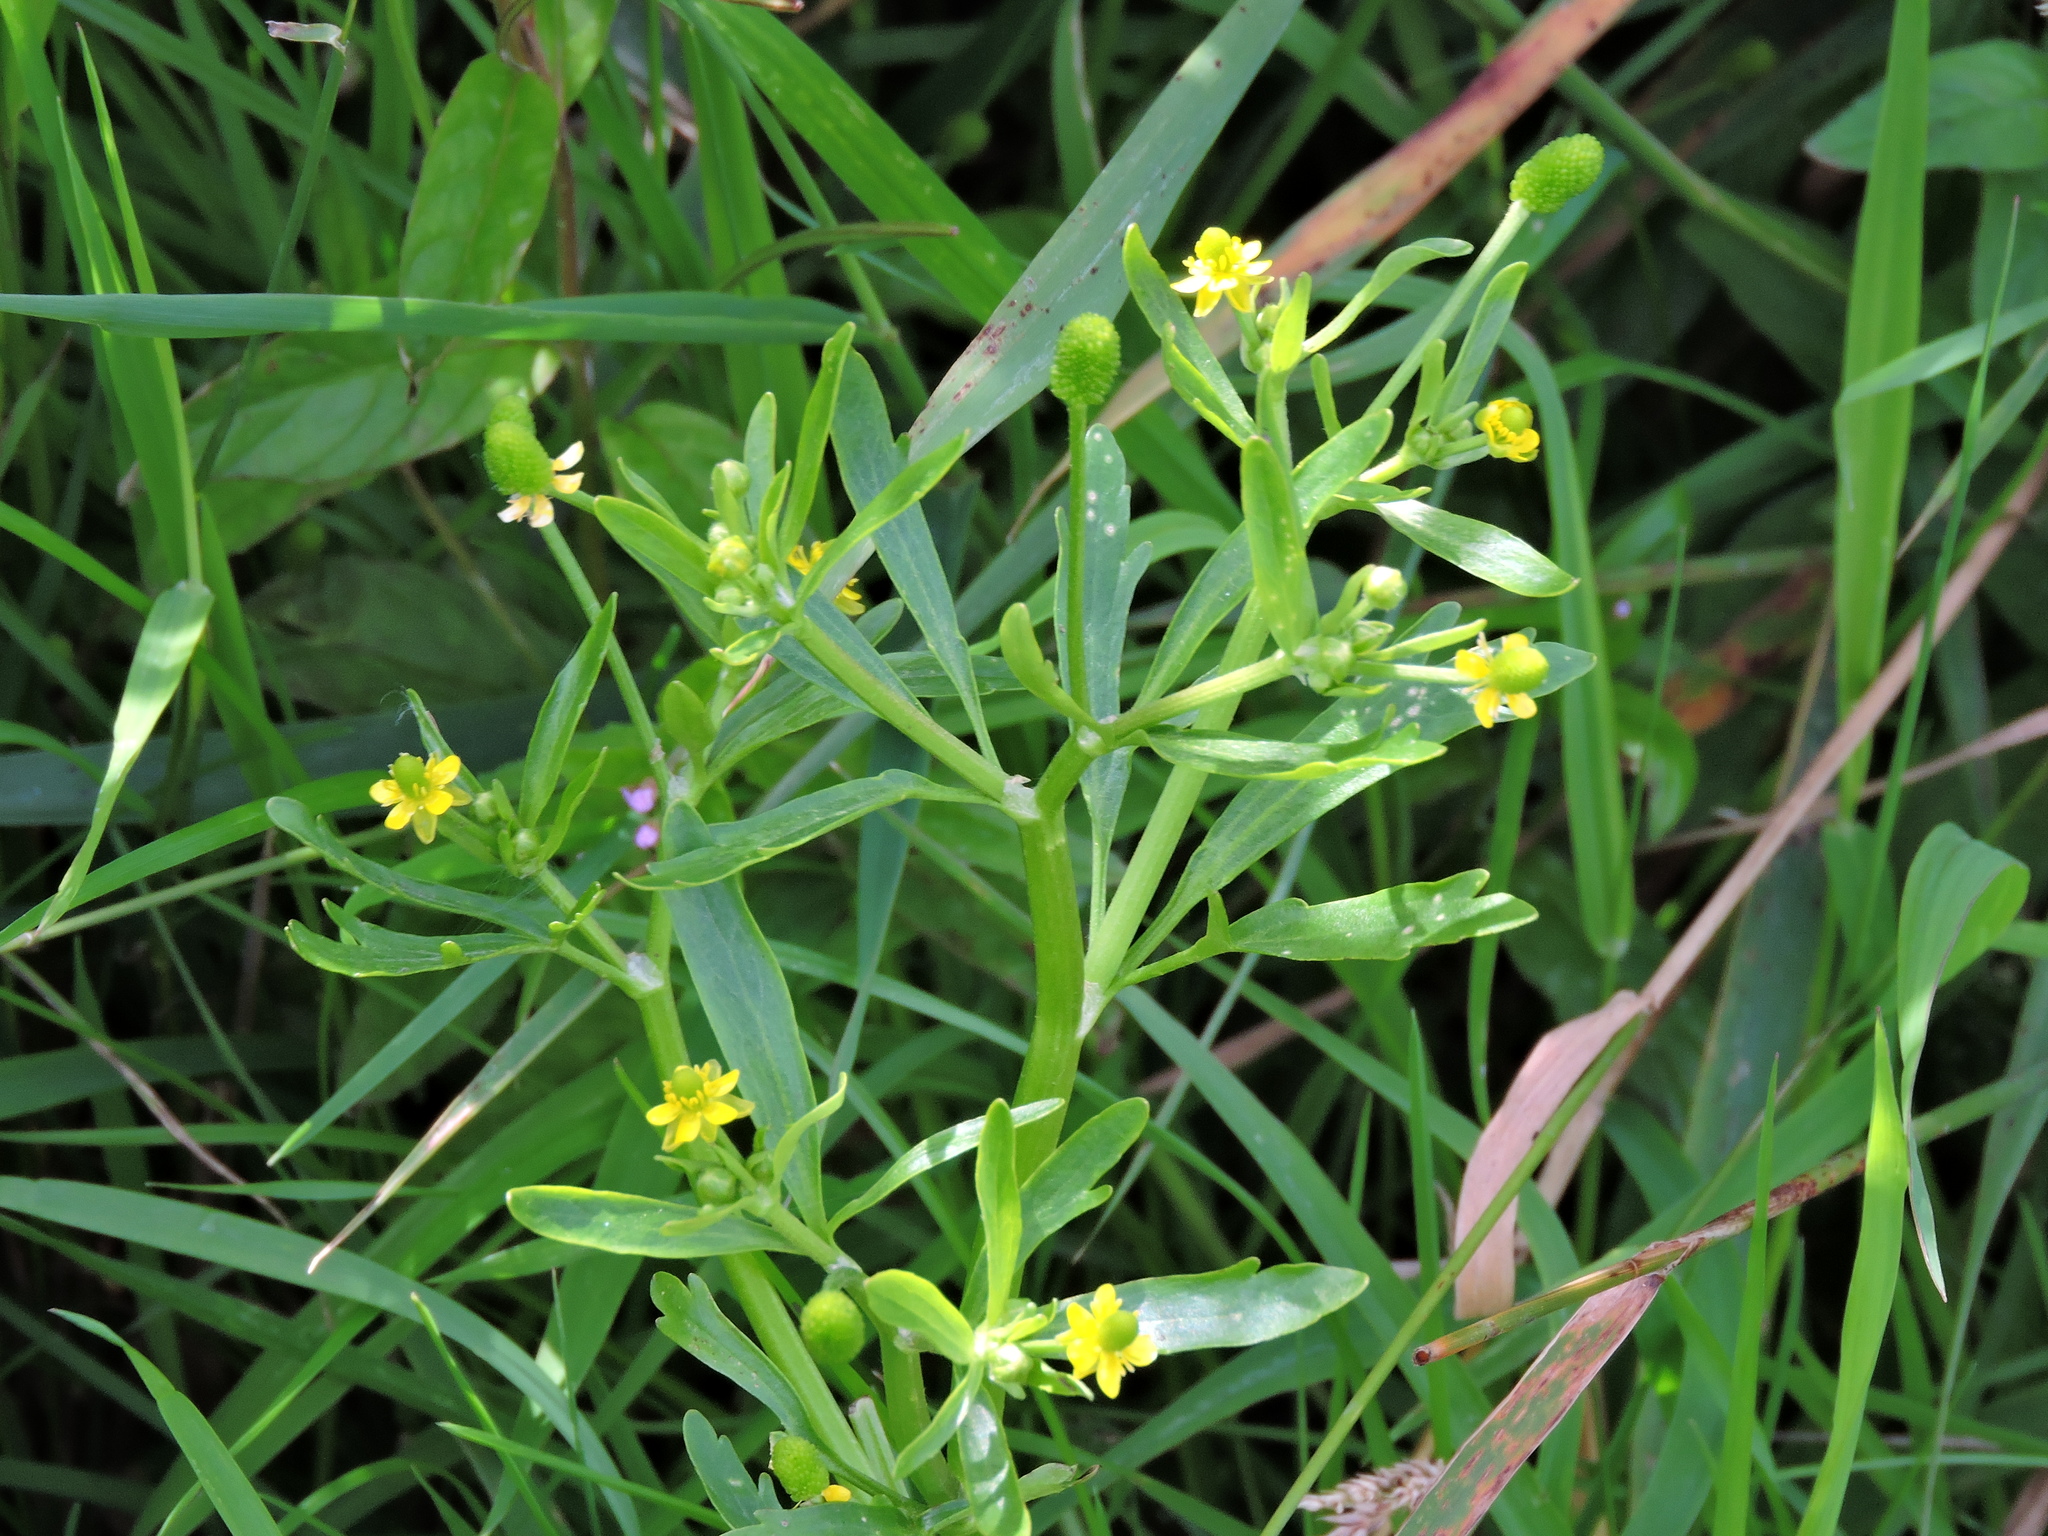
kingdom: Plantae
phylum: Tracheophyta
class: Magnoliopsida
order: Ranunculales
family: Ranunculaceae
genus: Ranunculus
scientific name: Ranunculus sceleratus
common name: Celery-leaved buttercup
